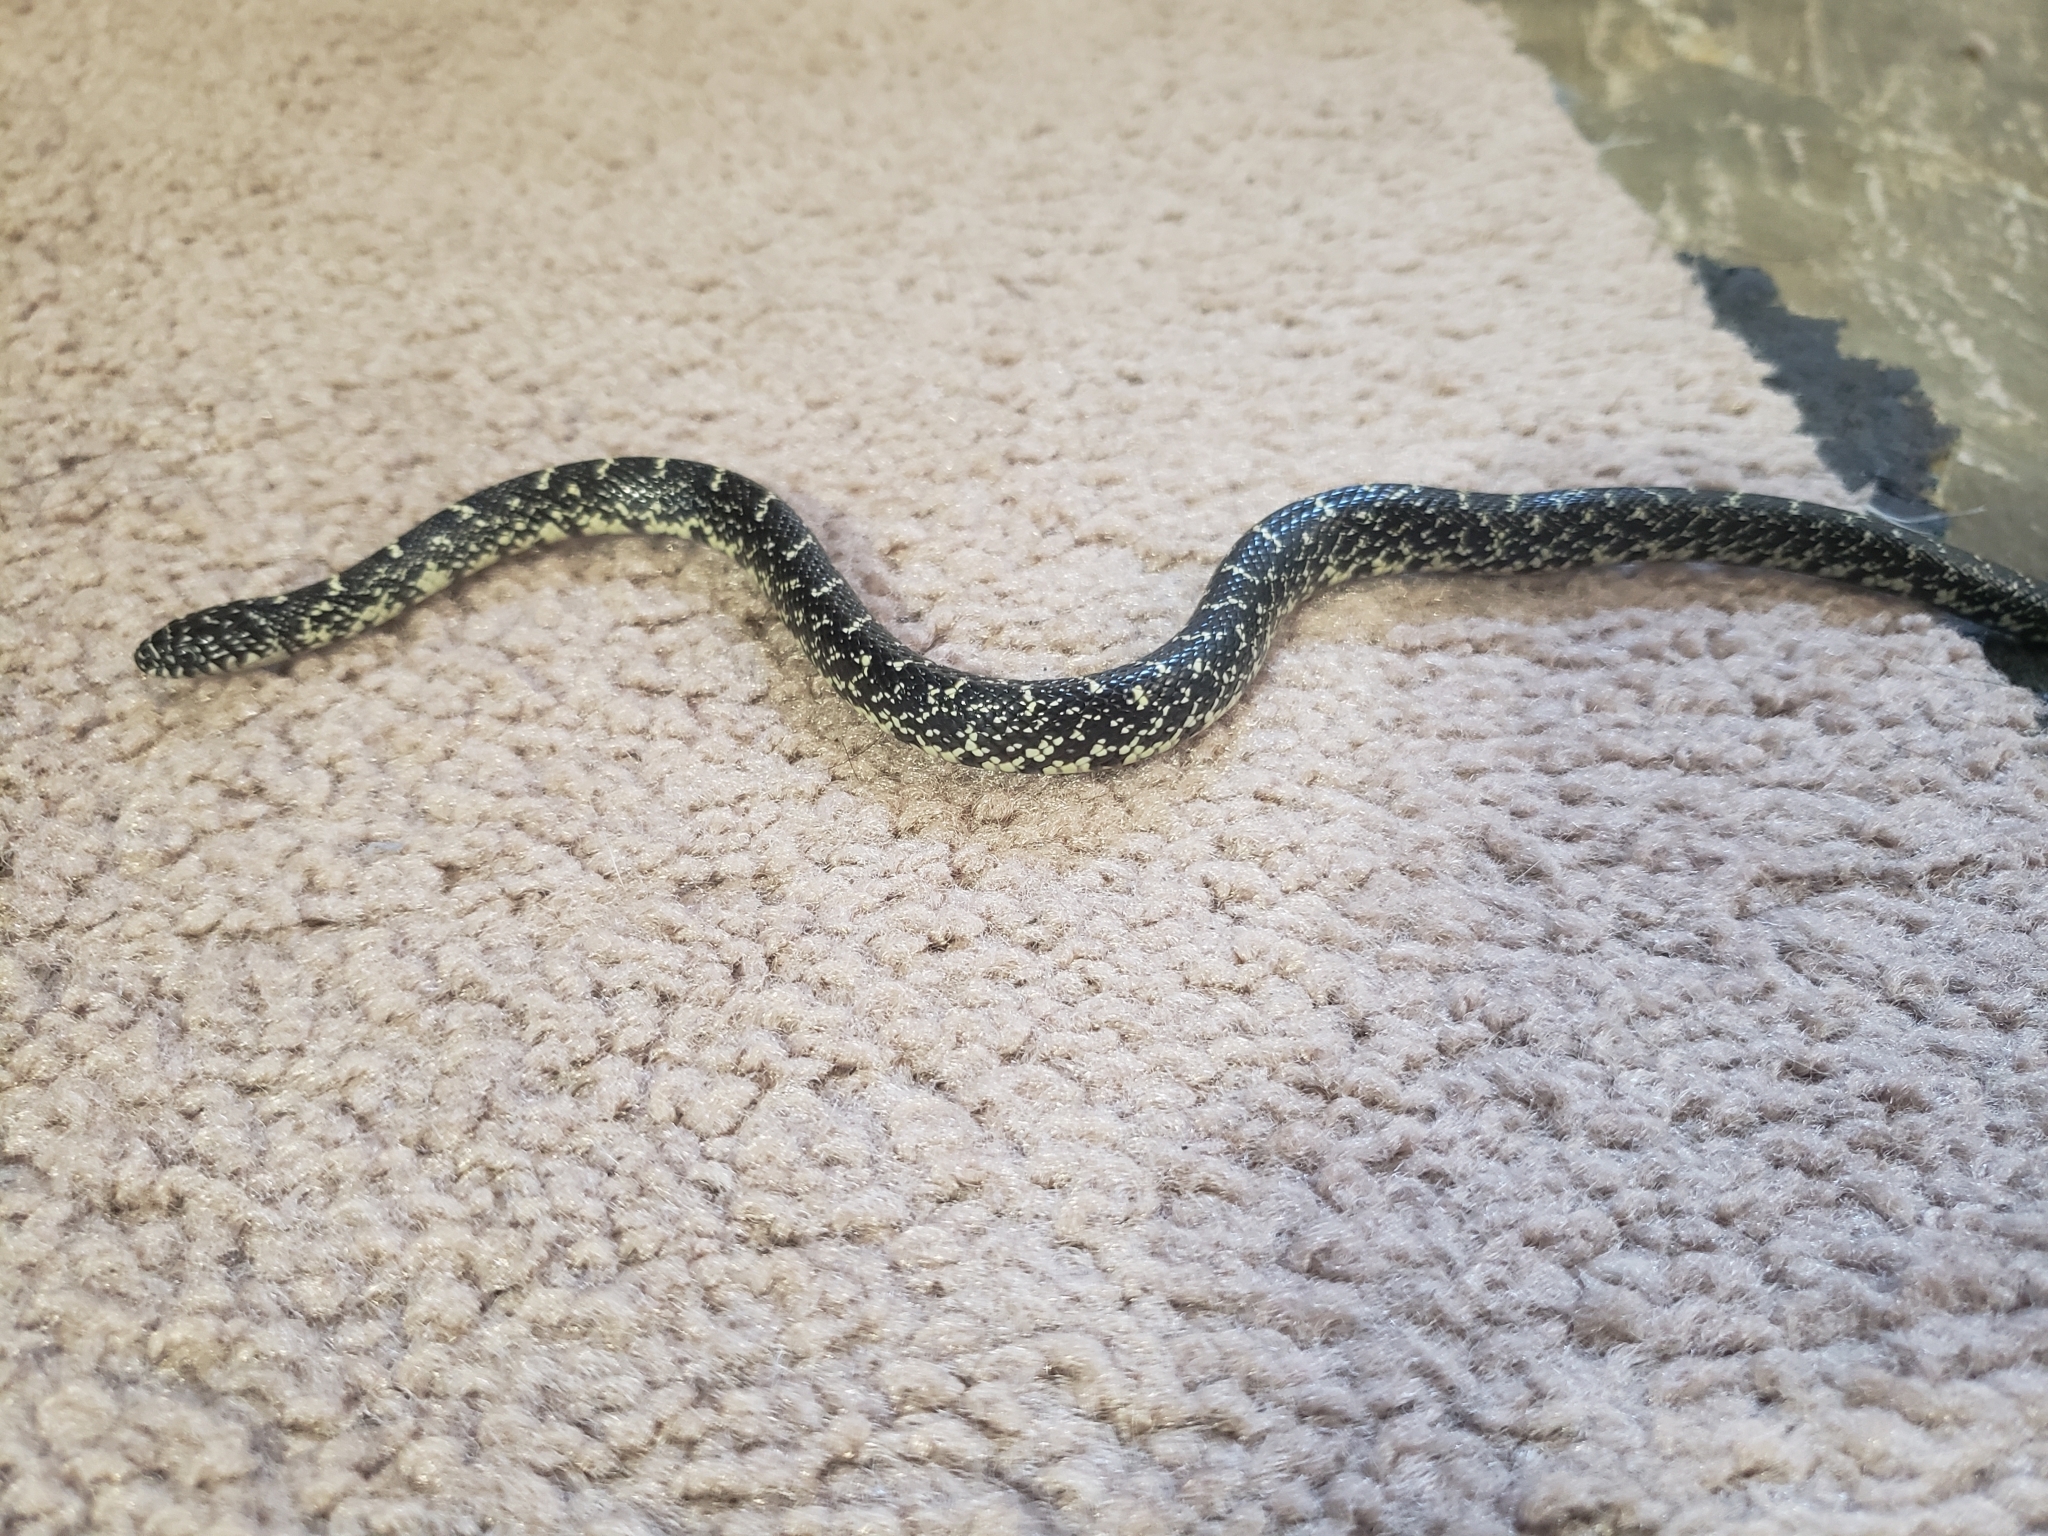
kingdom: Animalia
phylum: Chordata
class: Squamata
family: Colubridae
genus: Lampropeltis
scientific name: Lampropeltis holbrooki
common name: Speckled kingsnake
